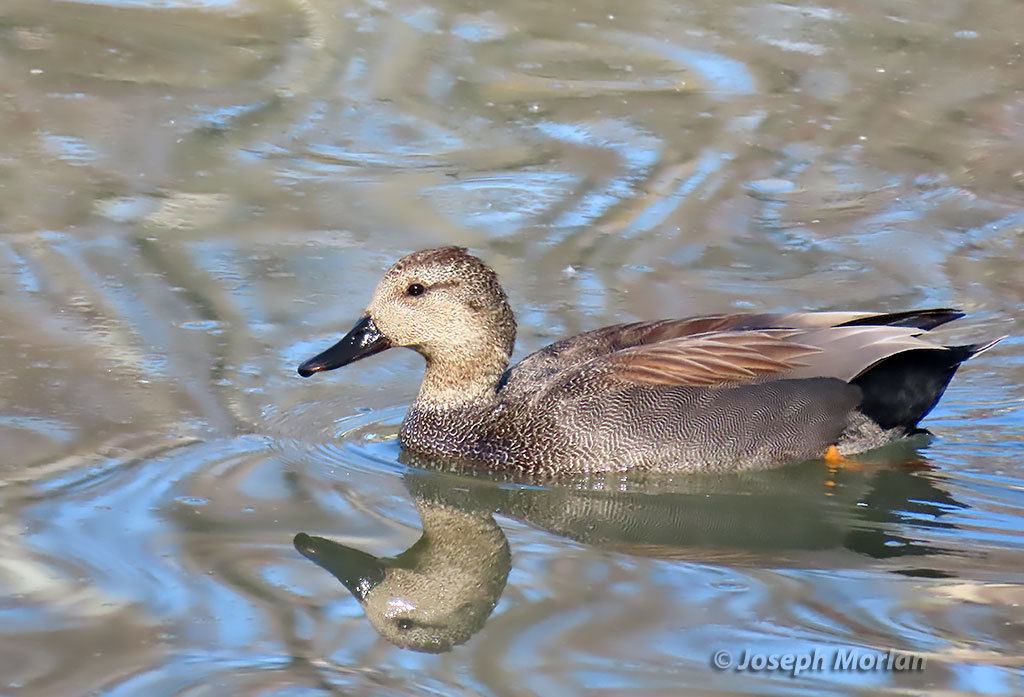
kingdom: Animalia
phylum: Chordata
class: Aves
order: Anseriformes
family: Anatidae
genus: Mareca
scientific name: Mareca strepera
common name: Gadwall
